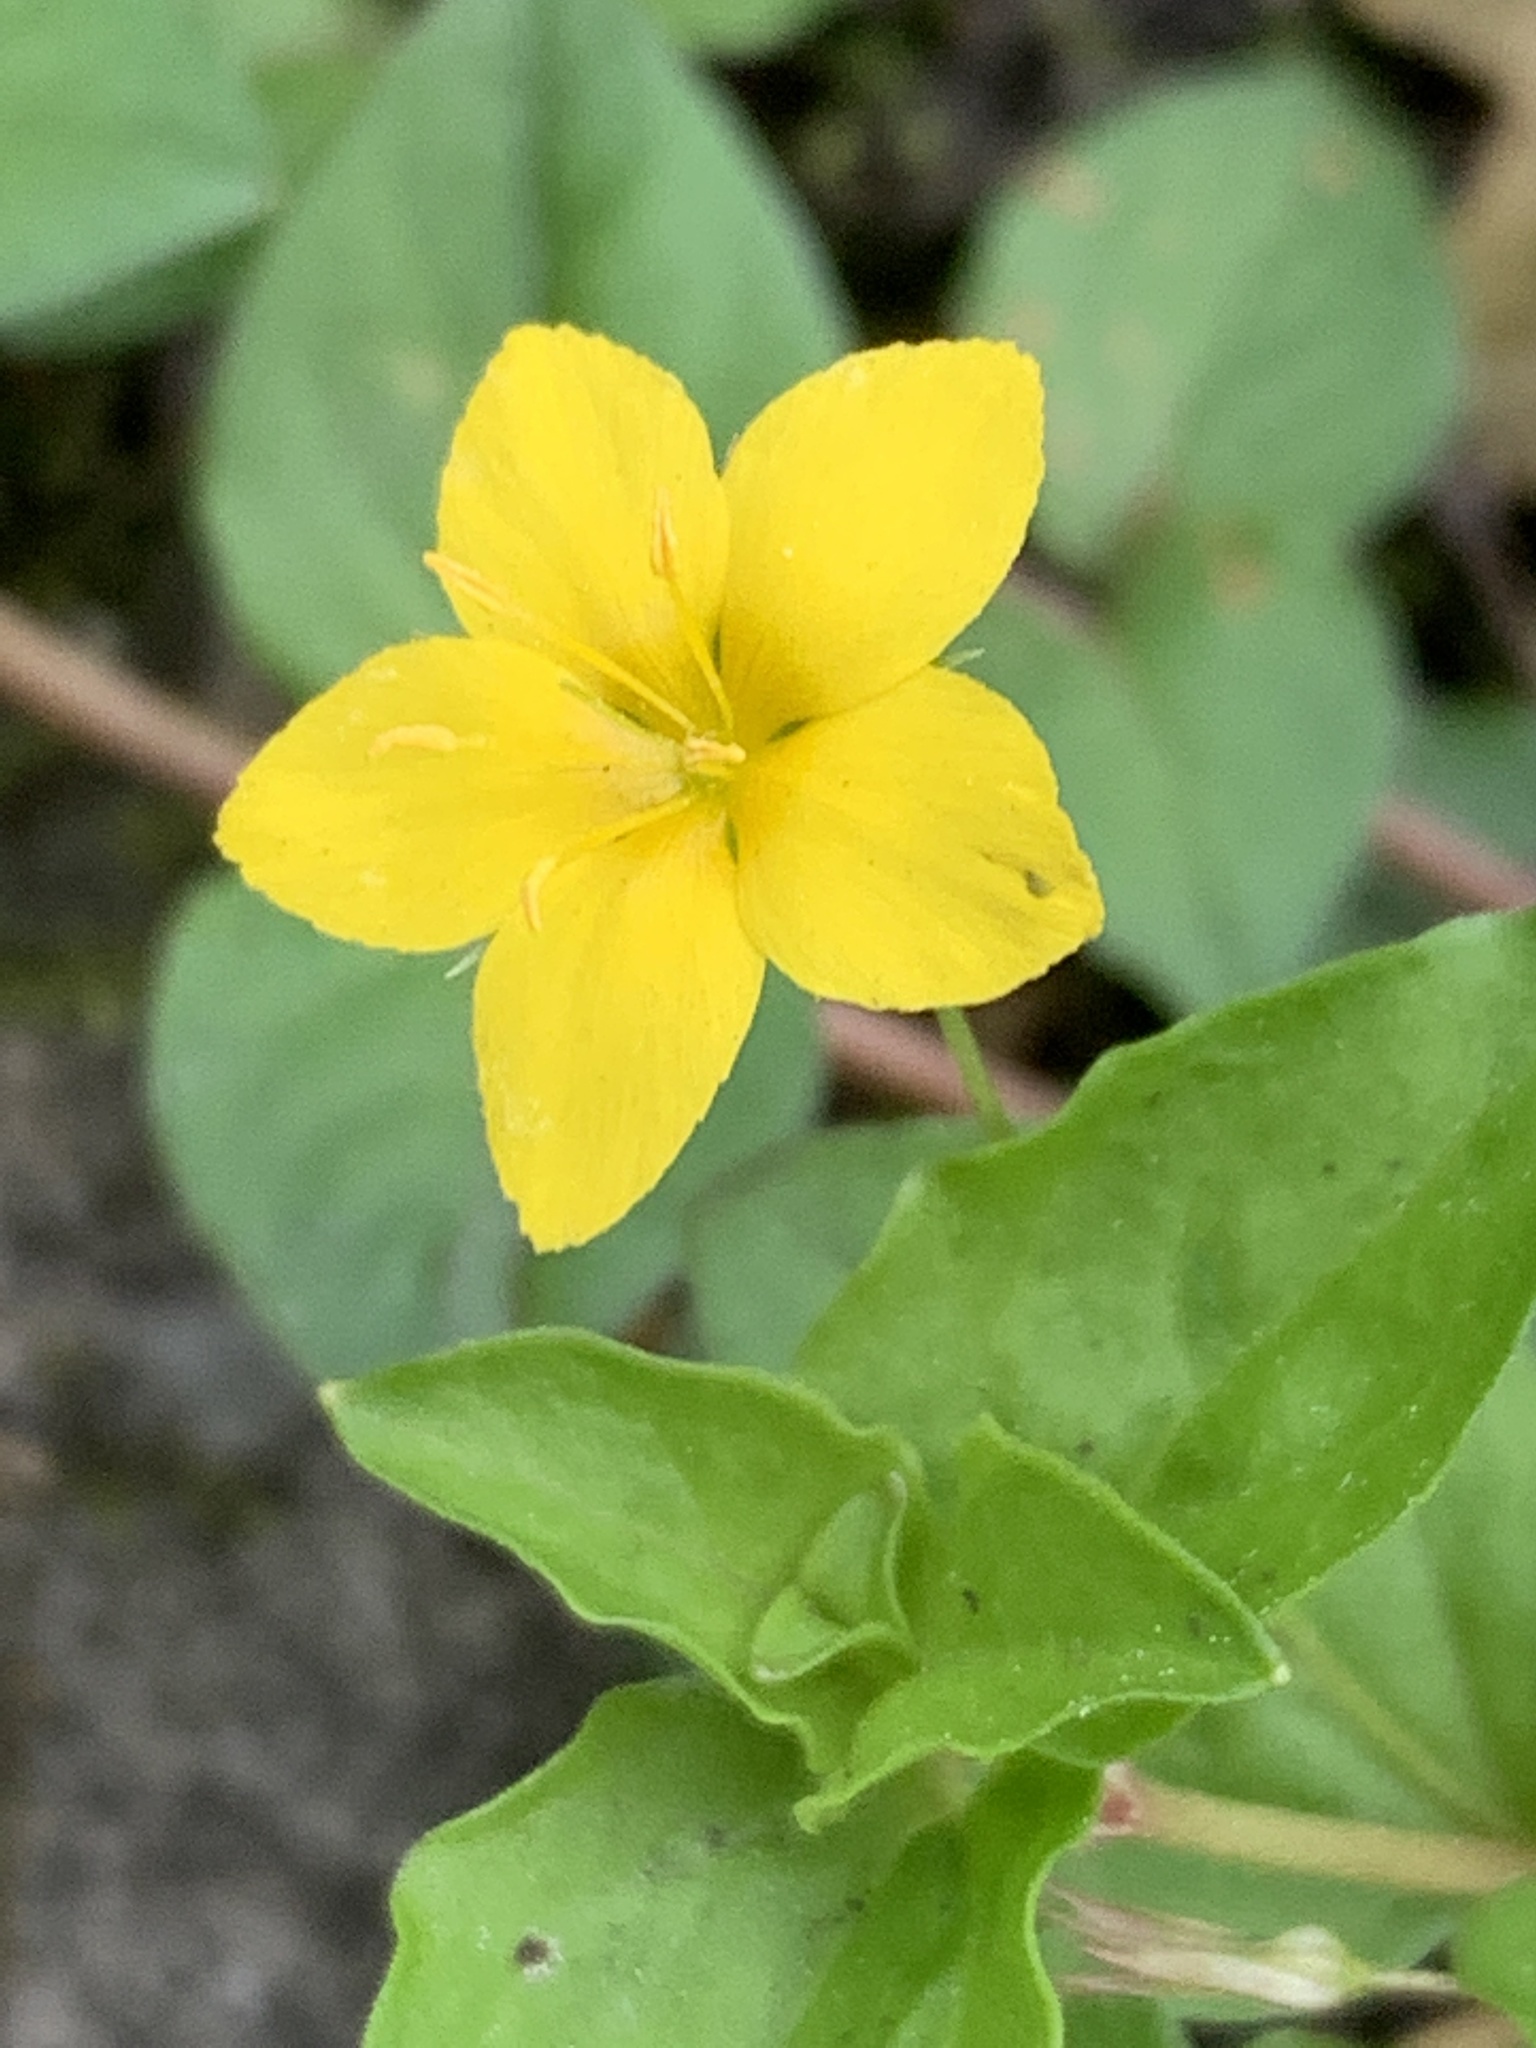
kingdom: Plantae
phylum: Tracheophyta
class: Magnoliopsida
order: Ericales
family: Primulaceae
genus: Lysimachia
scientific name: Lysimachia nemorum
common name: Yellow pimpernel
